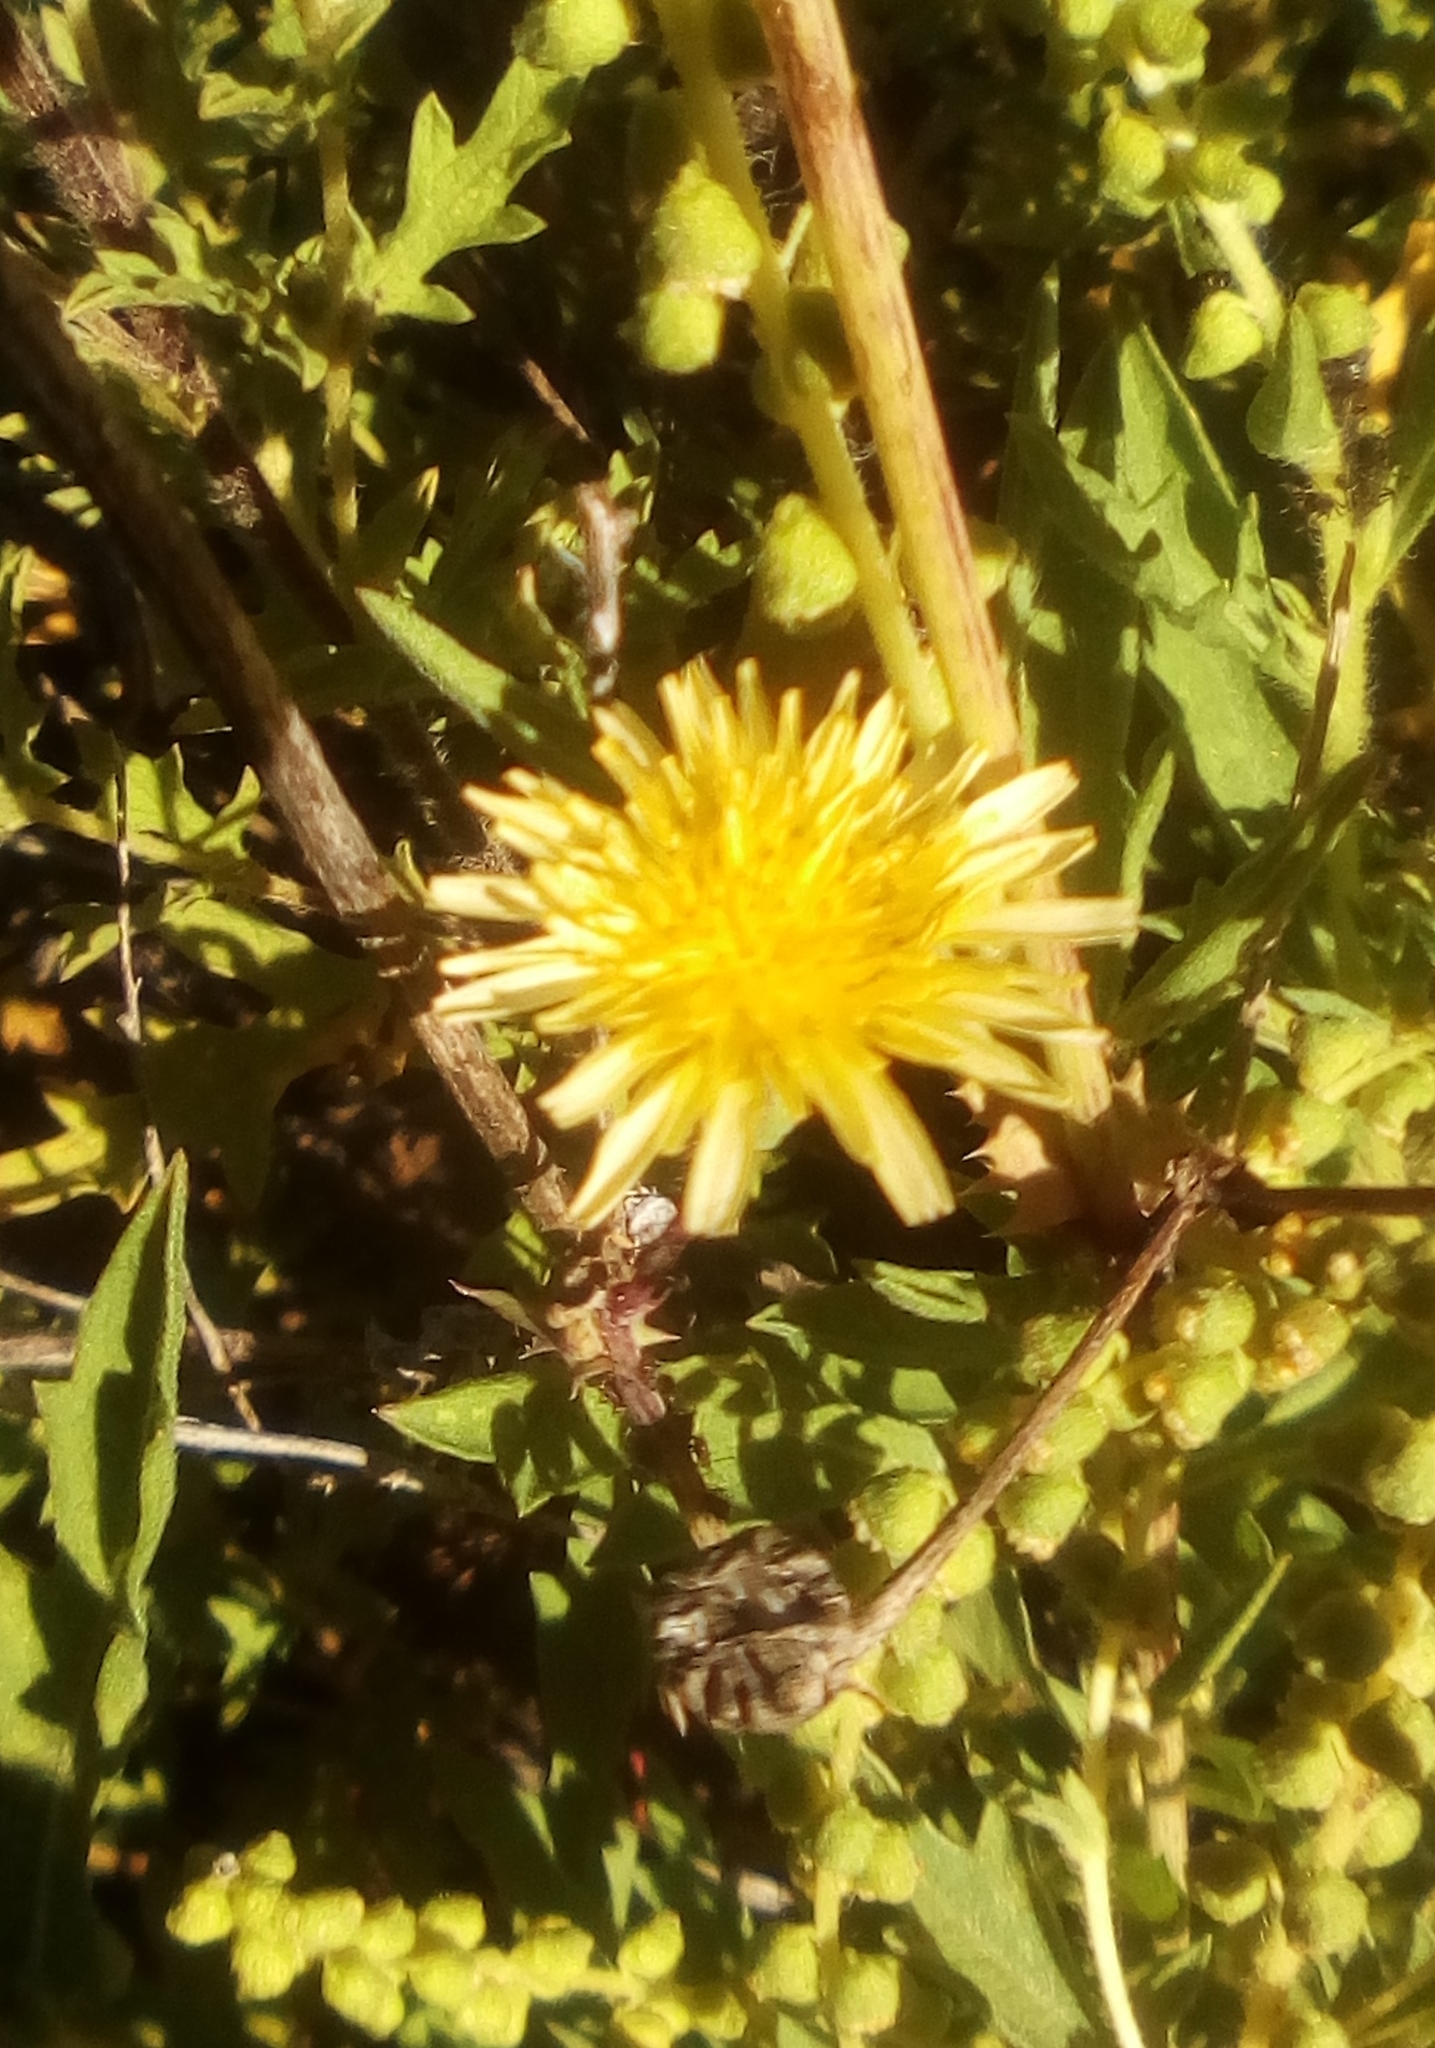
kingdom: Plantae
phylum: Tracheophyta
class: Magnoliopsida
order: Asterales
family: Asteraceae
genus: Taraxacum
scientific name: Taraxacum officinale
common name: Common dandelion
